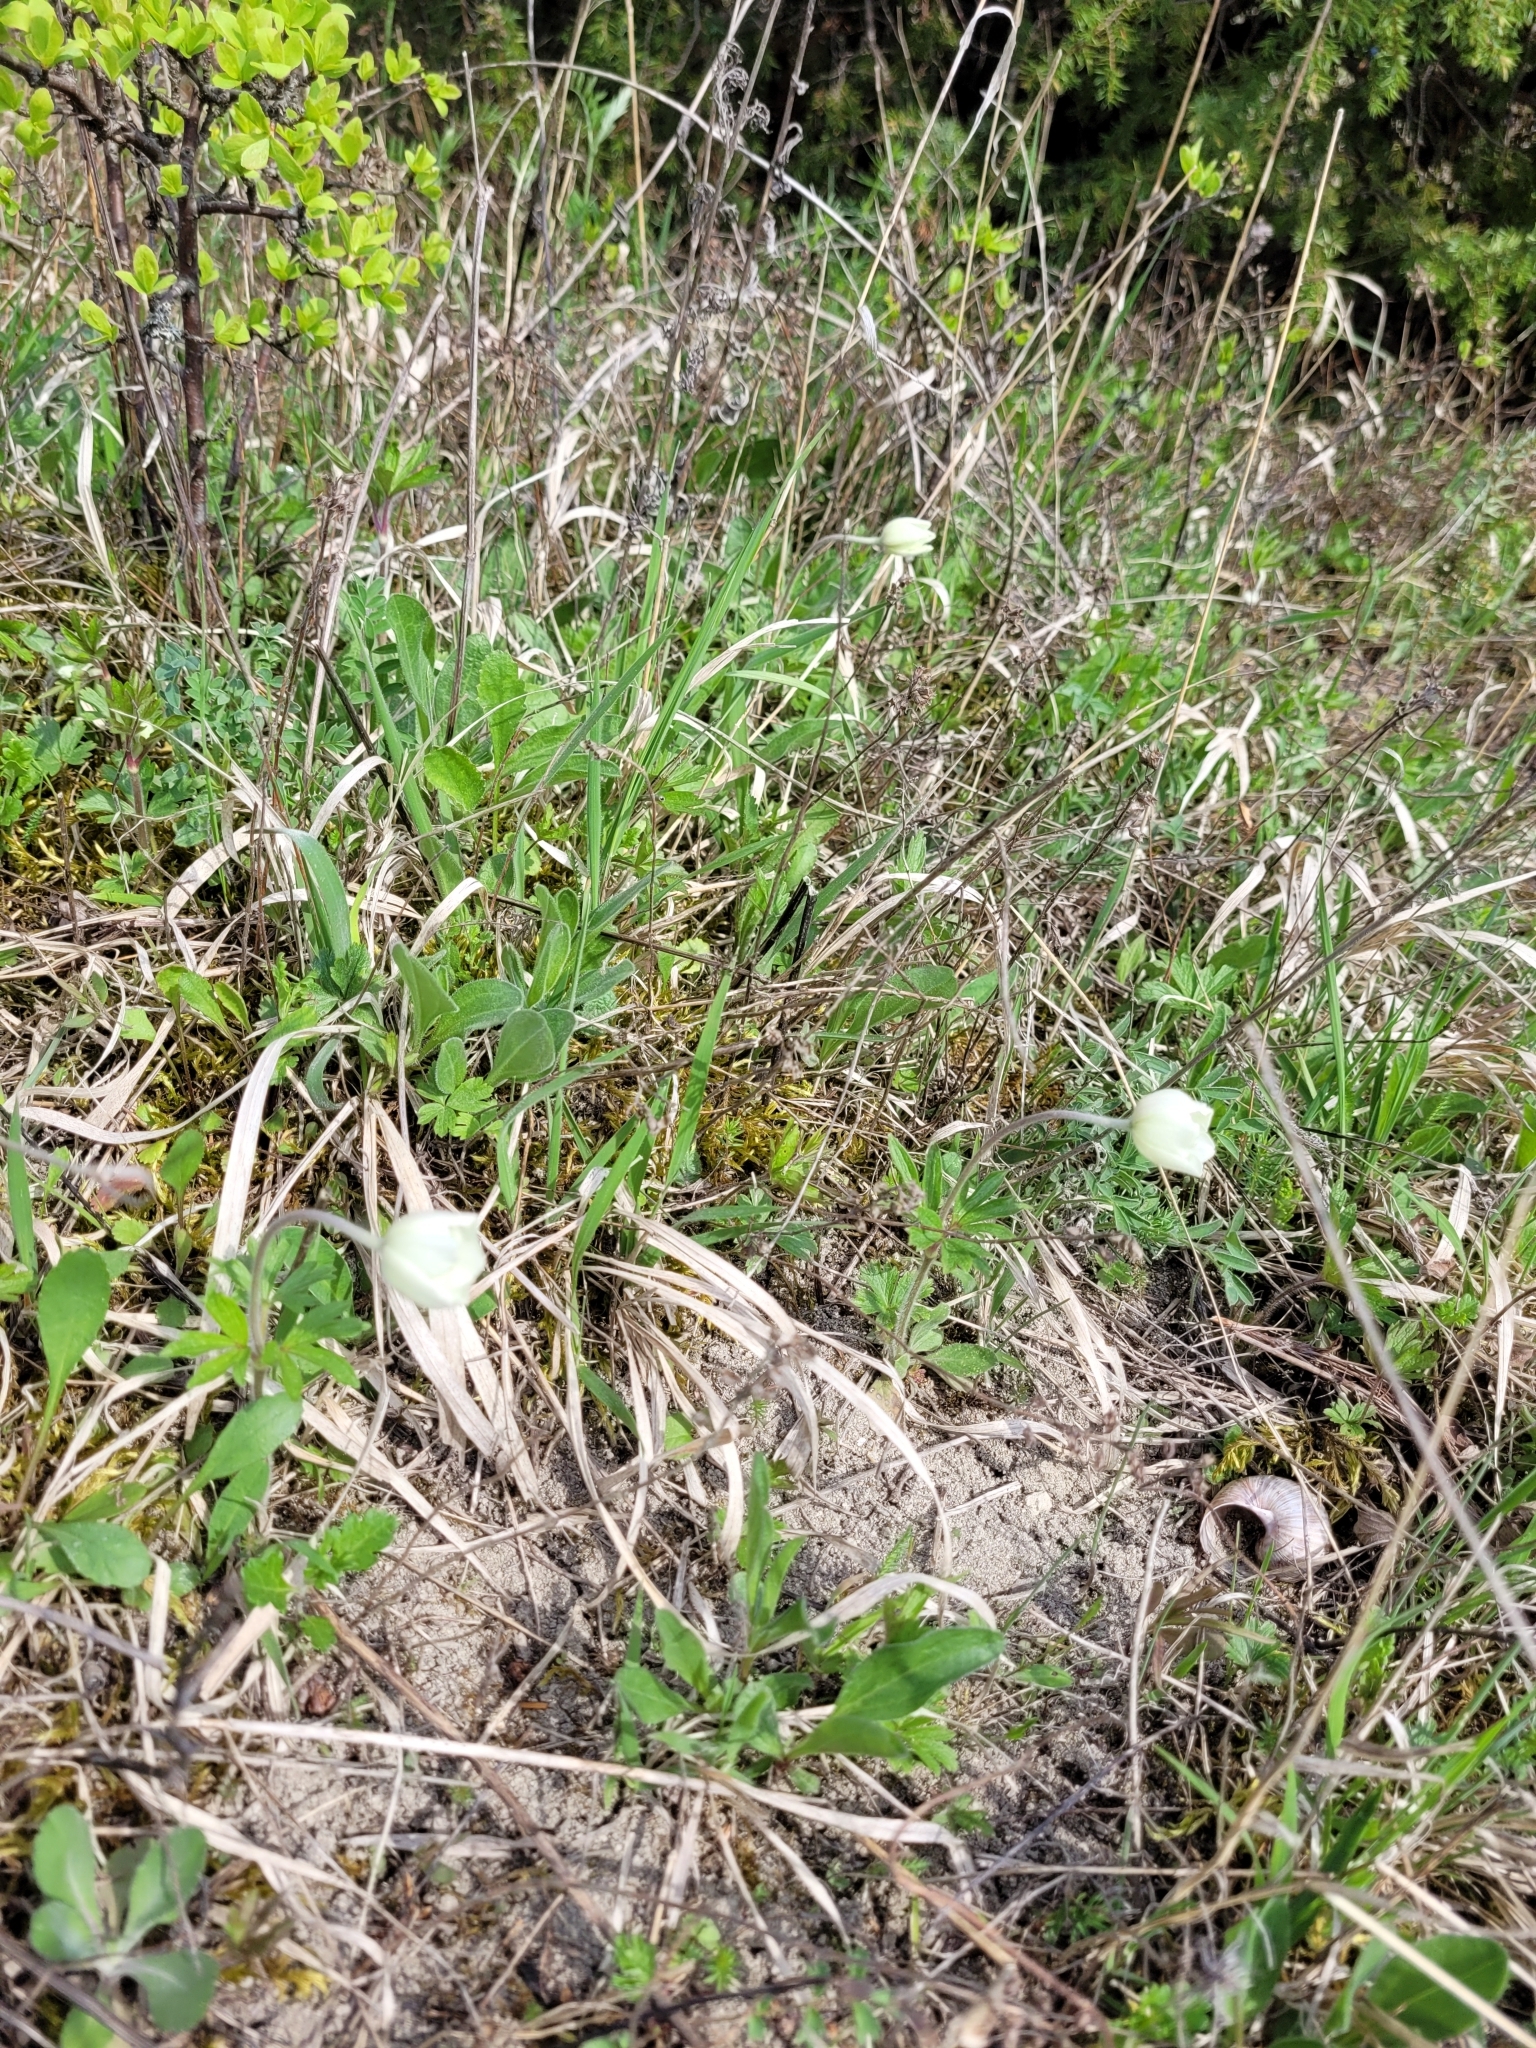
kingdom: Plantae
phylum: Tracheophyta
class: Magnoliopsida
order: Ranunculales
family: Ranunculaceae
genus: Anemone
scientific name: Anemone sylvestris
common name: Snowdrop anemone
